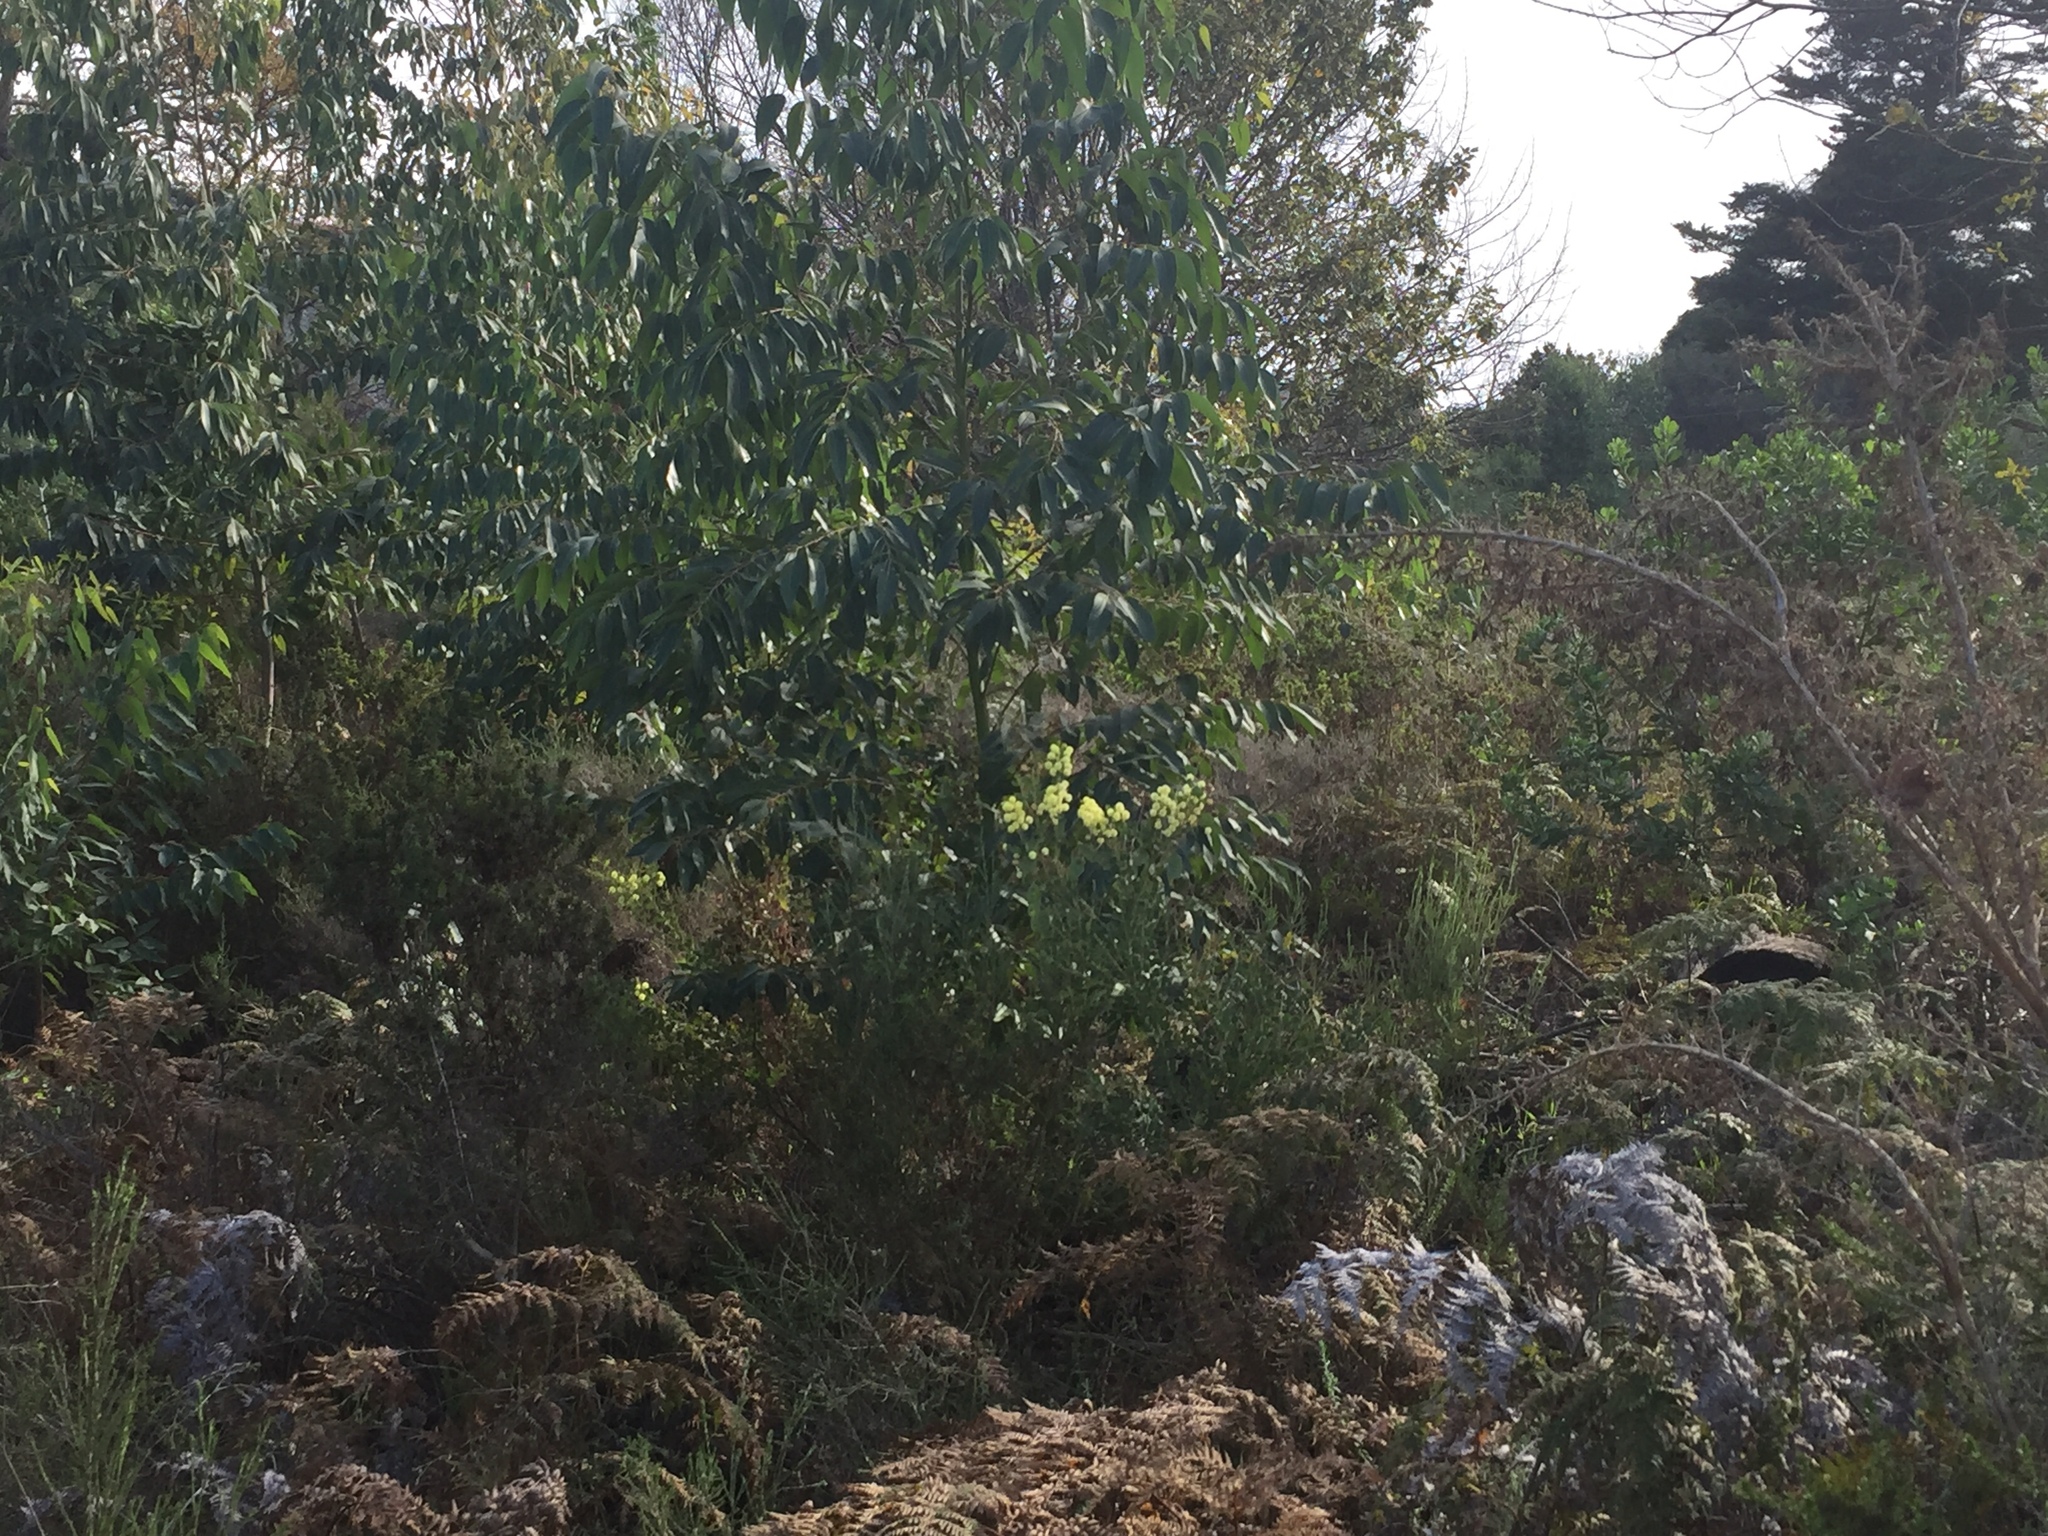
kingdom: Plantae
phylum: Tracheophyta
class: Magnoliopsida
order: Fabales
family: Fabaceae
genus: Acacia
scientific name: Acacia piligera
